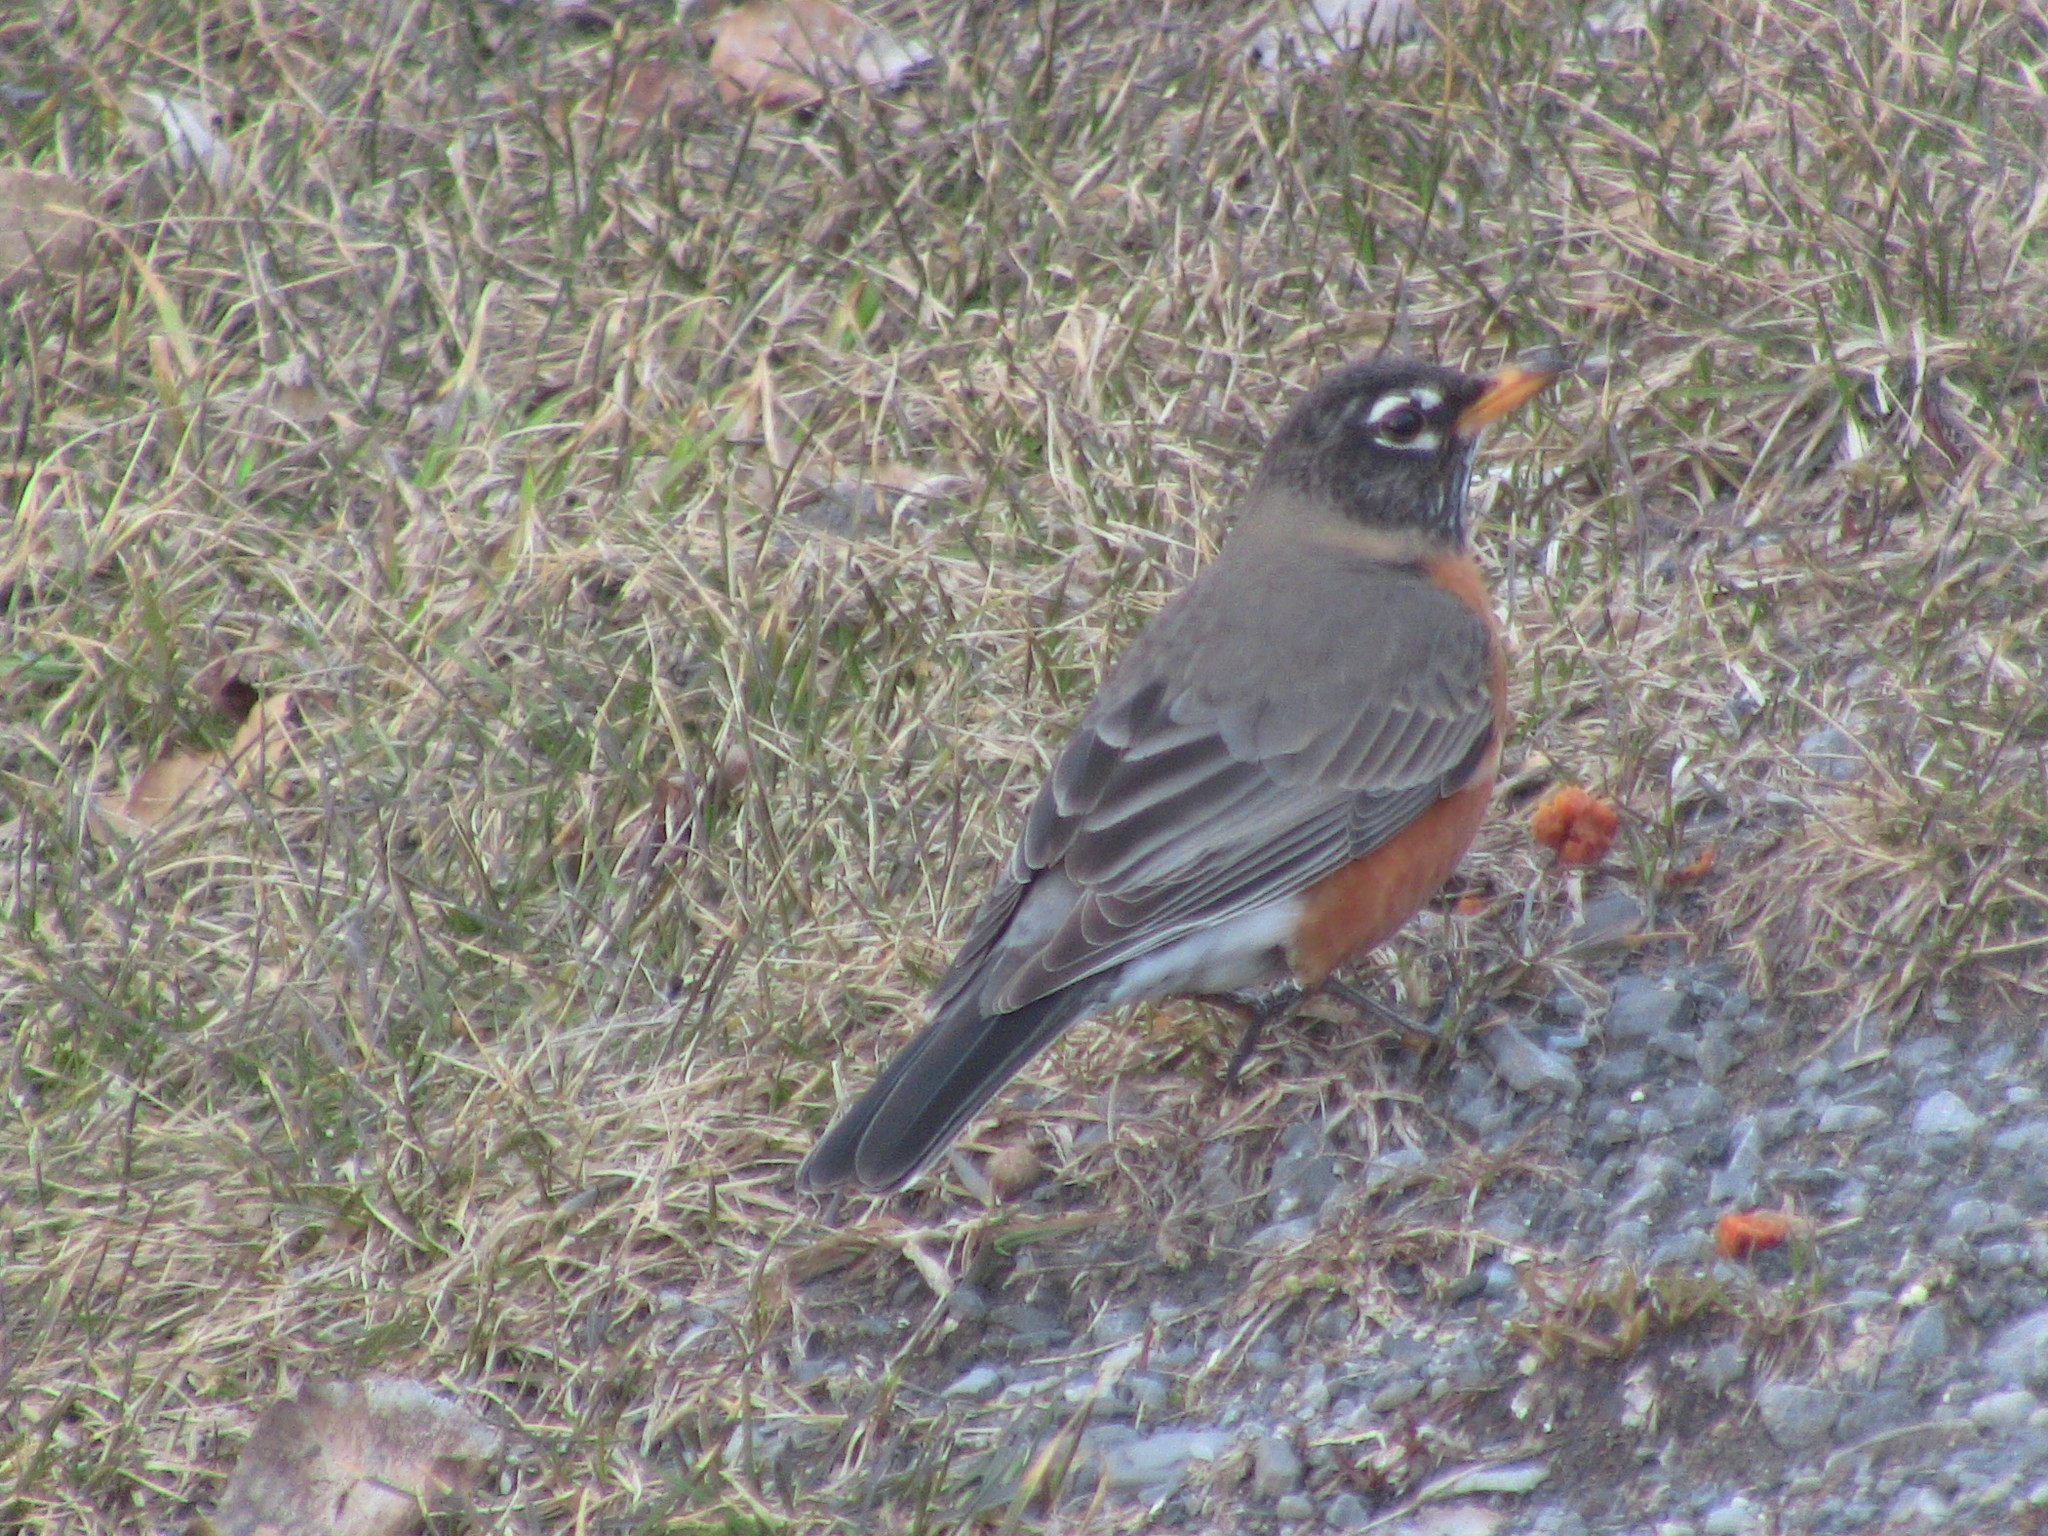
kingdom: Animalia
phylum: Chordata
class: Aves
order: Passeriformes
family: Turdidae
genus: Turdus
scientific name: Turdus migratorius
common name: American robin
